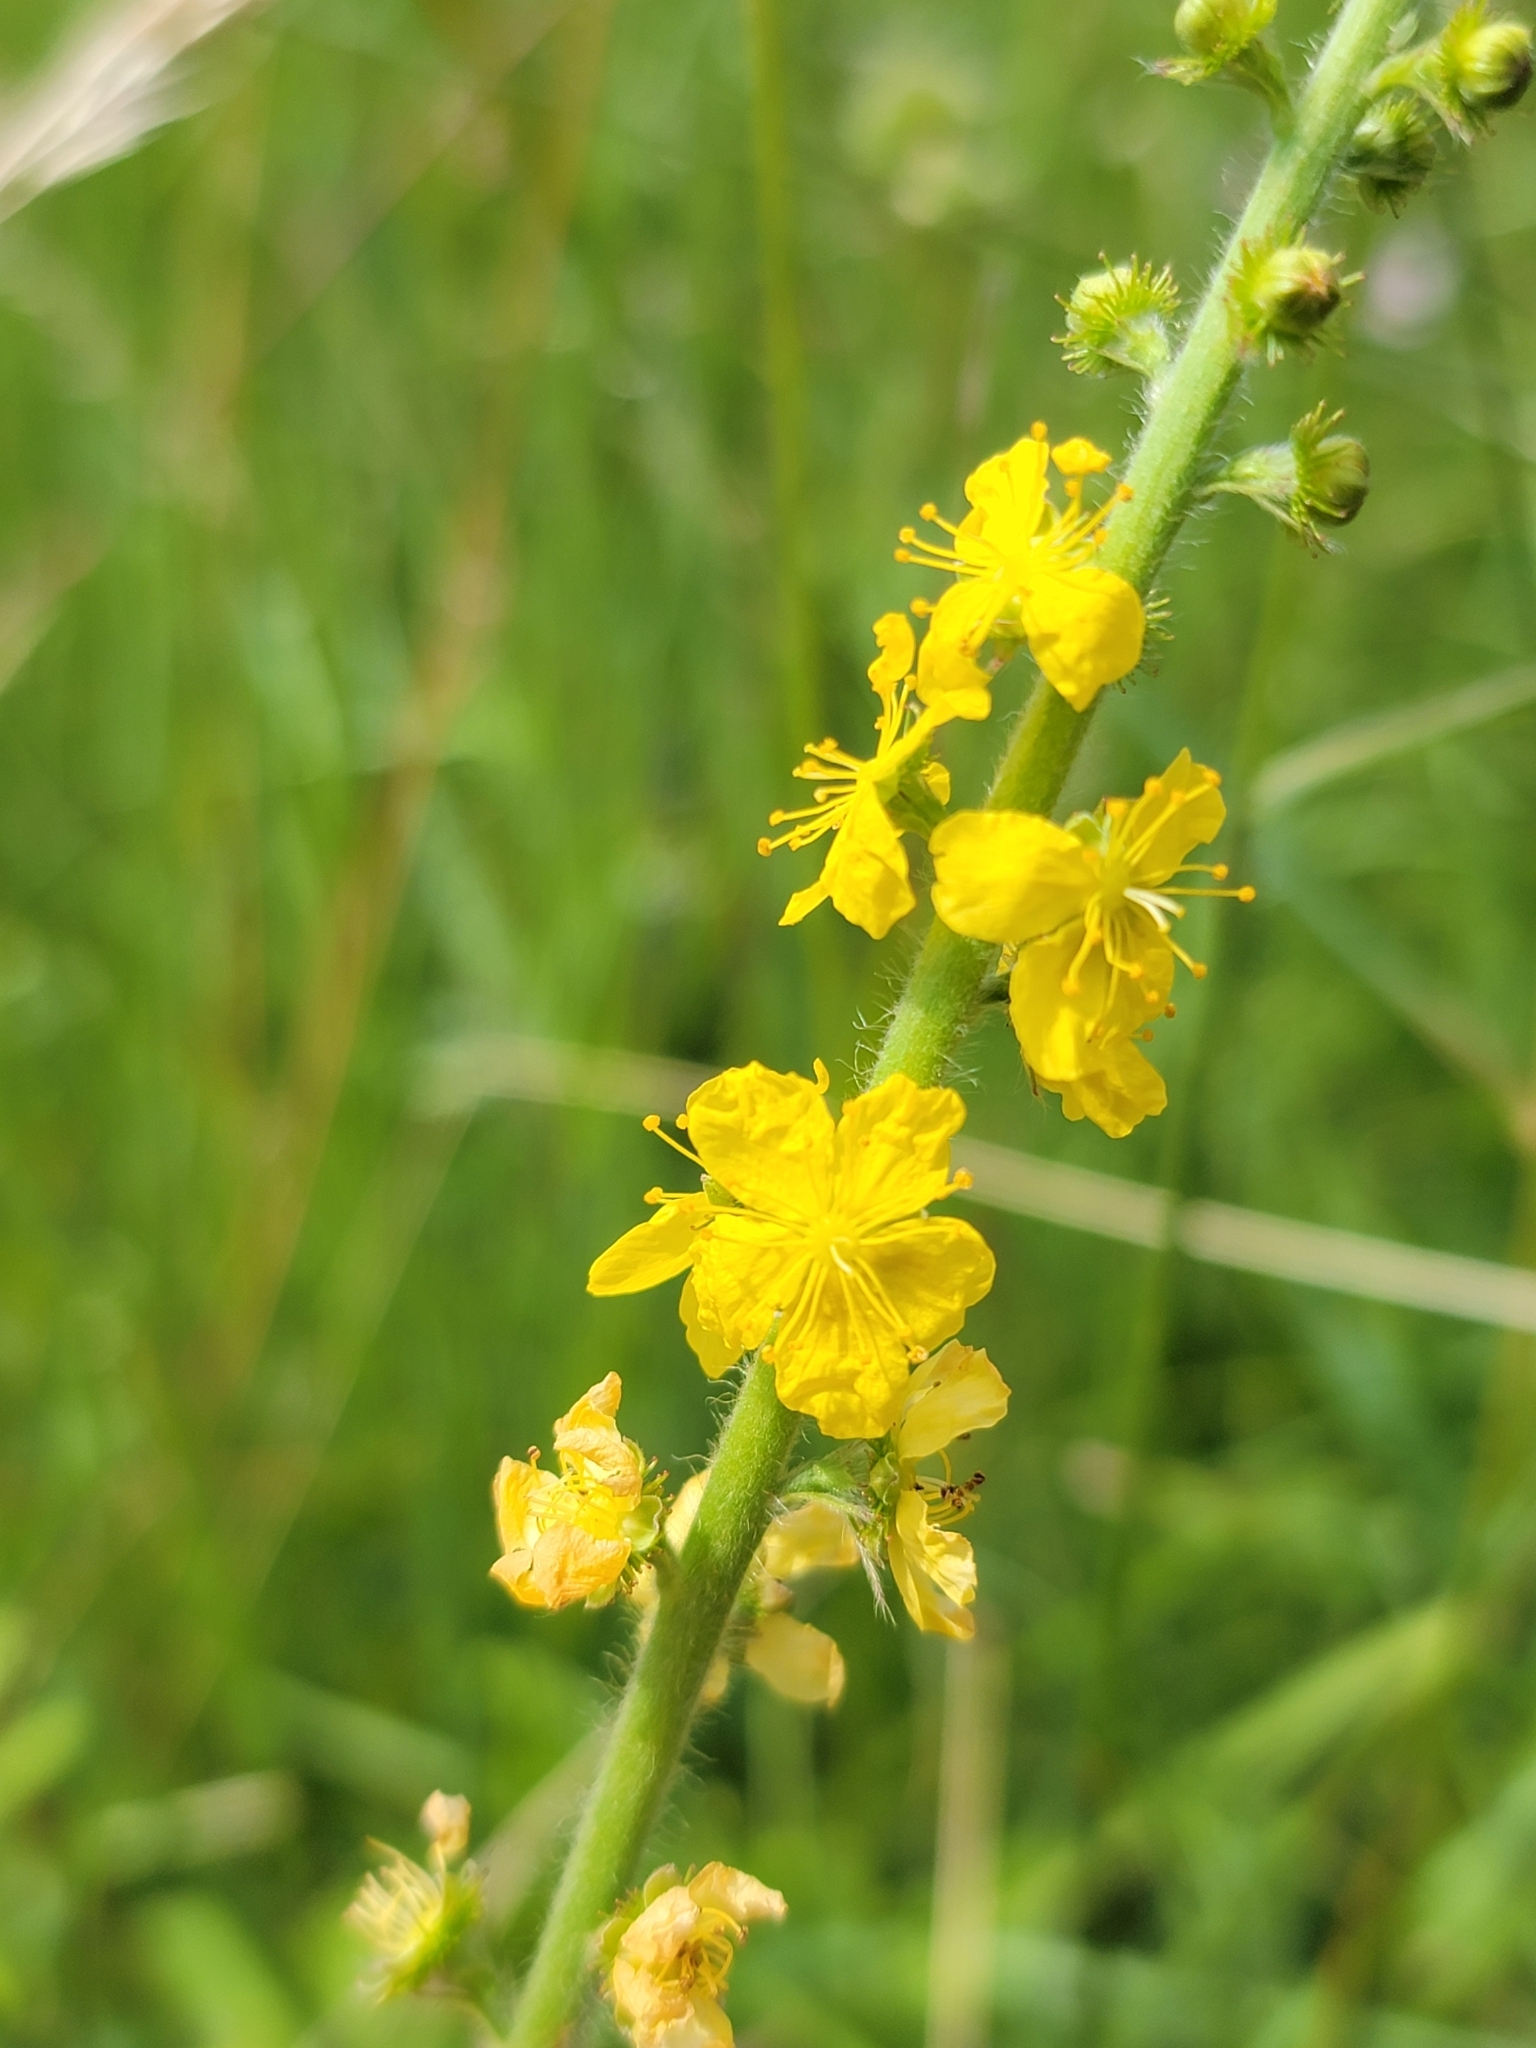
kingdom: Plantae
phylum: Tracheophyta
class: Magnoliopsida
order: Rosales
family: Rosaceae
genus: Agrimonia
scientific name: Agrimonia eupatoria
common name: Agrimony
